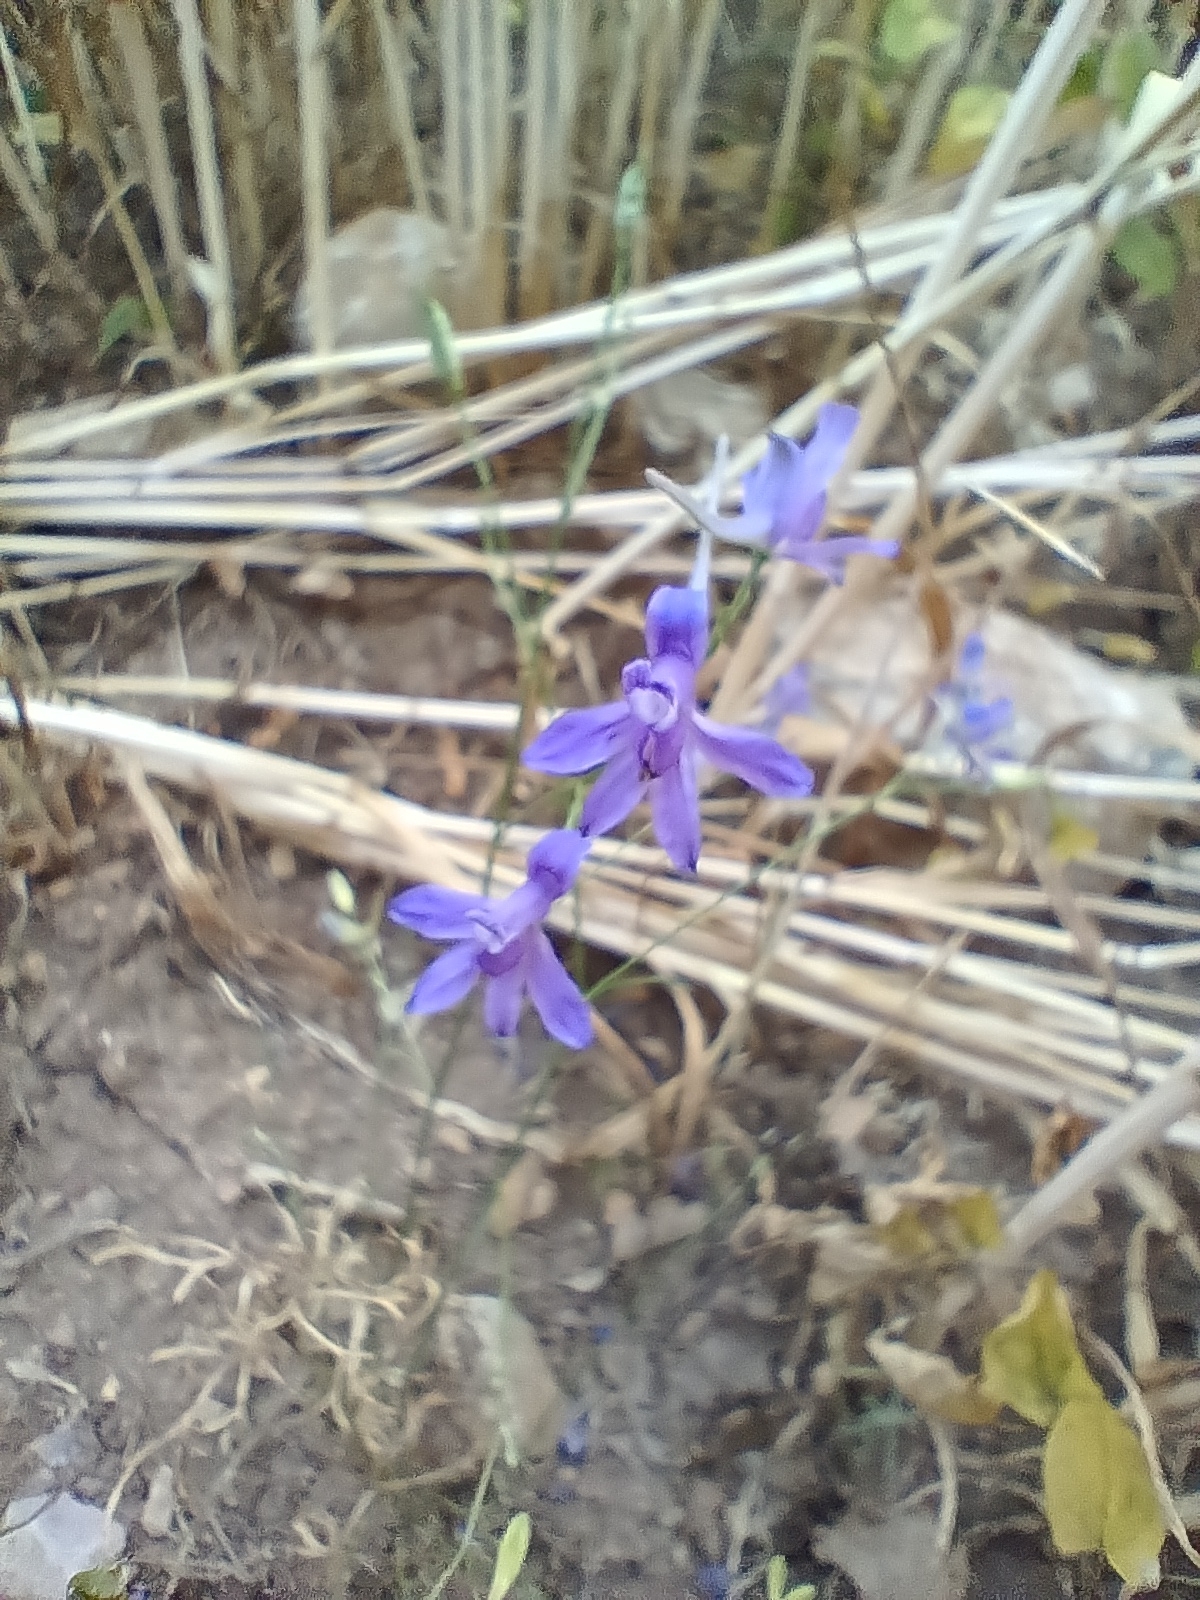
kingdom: Plantae
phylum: Tracheophyta
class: Magnoliopsida
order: Ranunculales
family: Ranunculaceae
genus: Delphinium
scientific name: Delphinium consolida
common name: Branching larkspur
